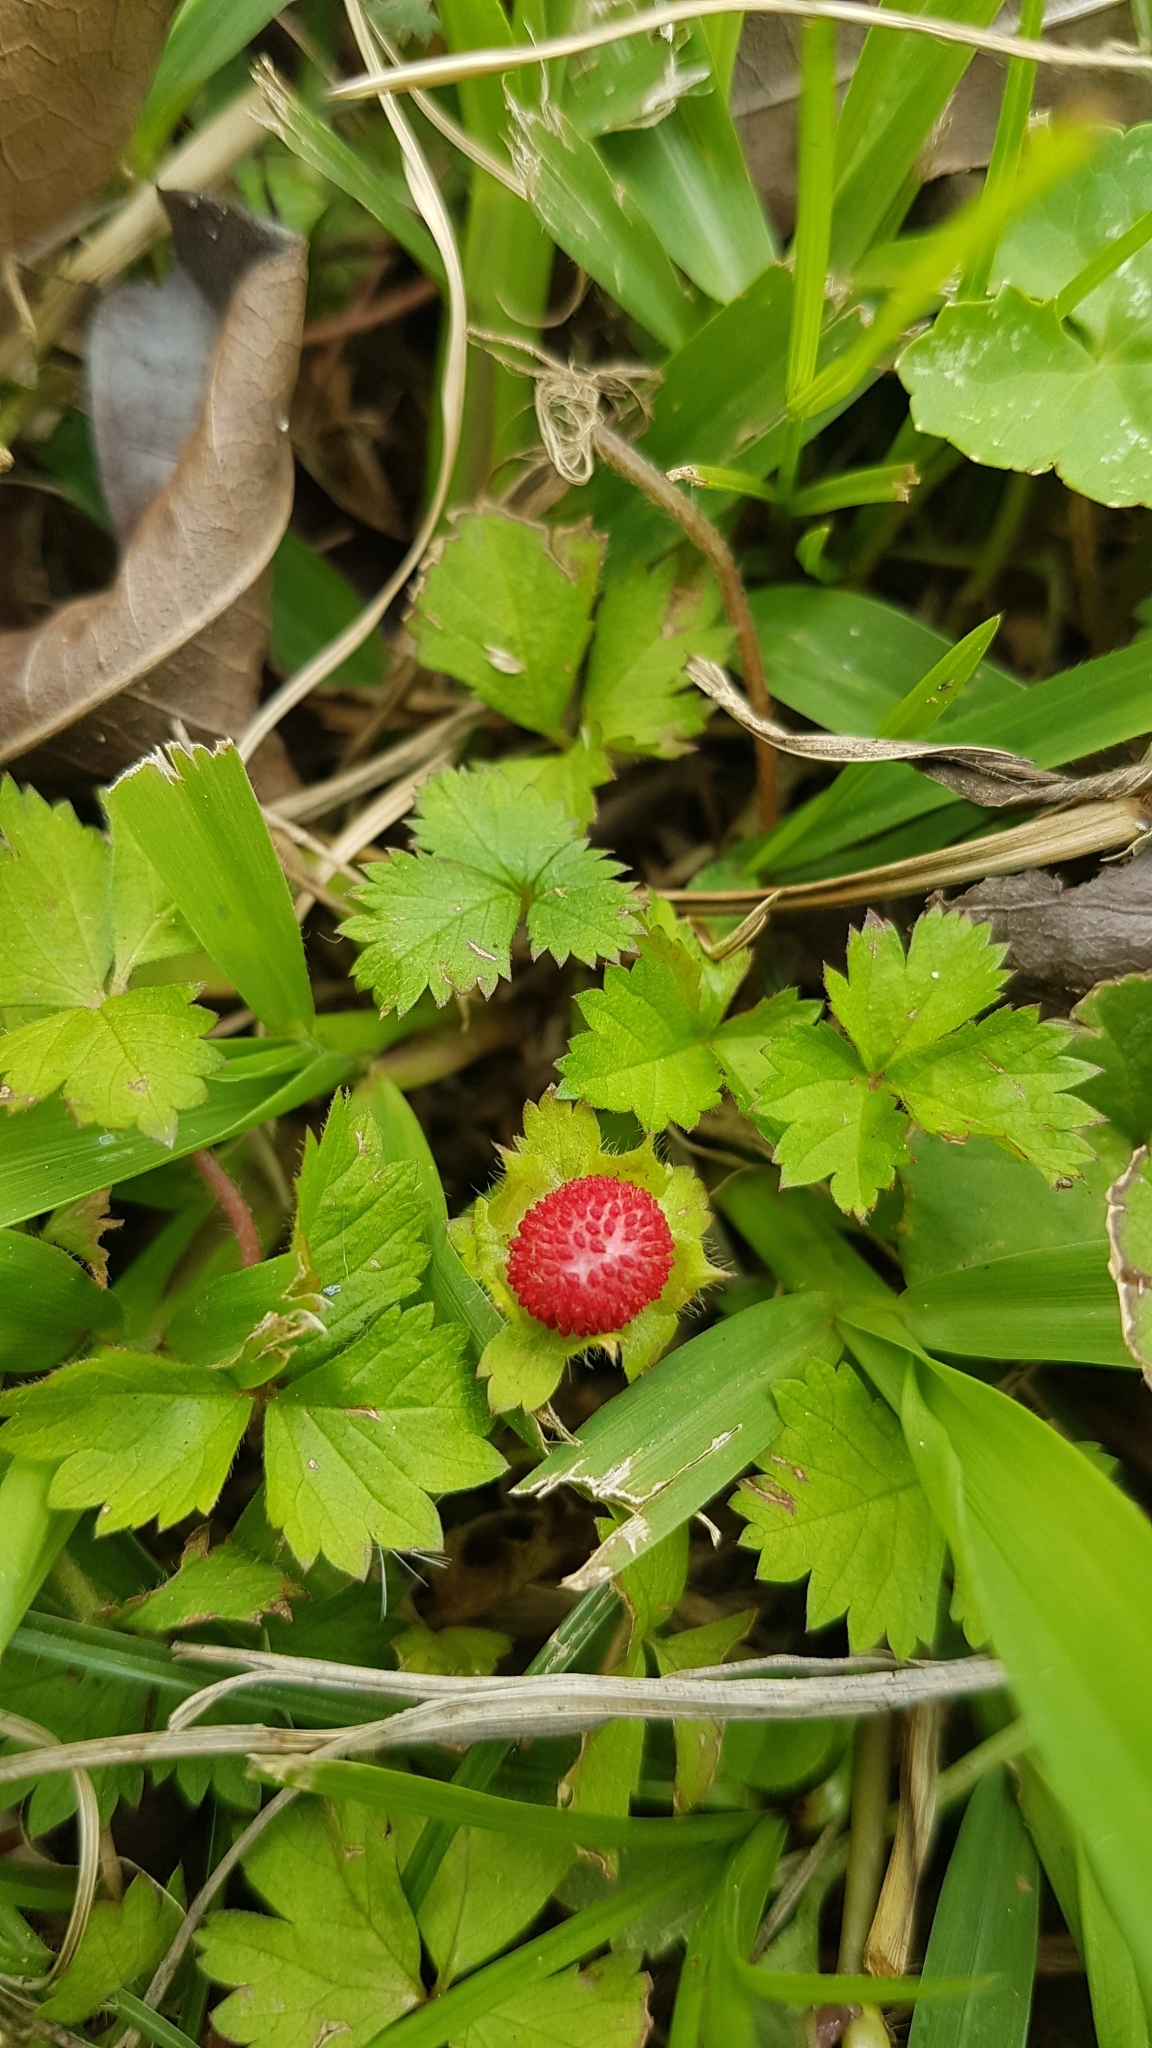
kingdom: Plantae
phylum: Tracheophyta
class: Magnoliopsida
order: Rosales
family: Rosaceae
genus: Potentilla
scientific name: Potentilla wallichiana
